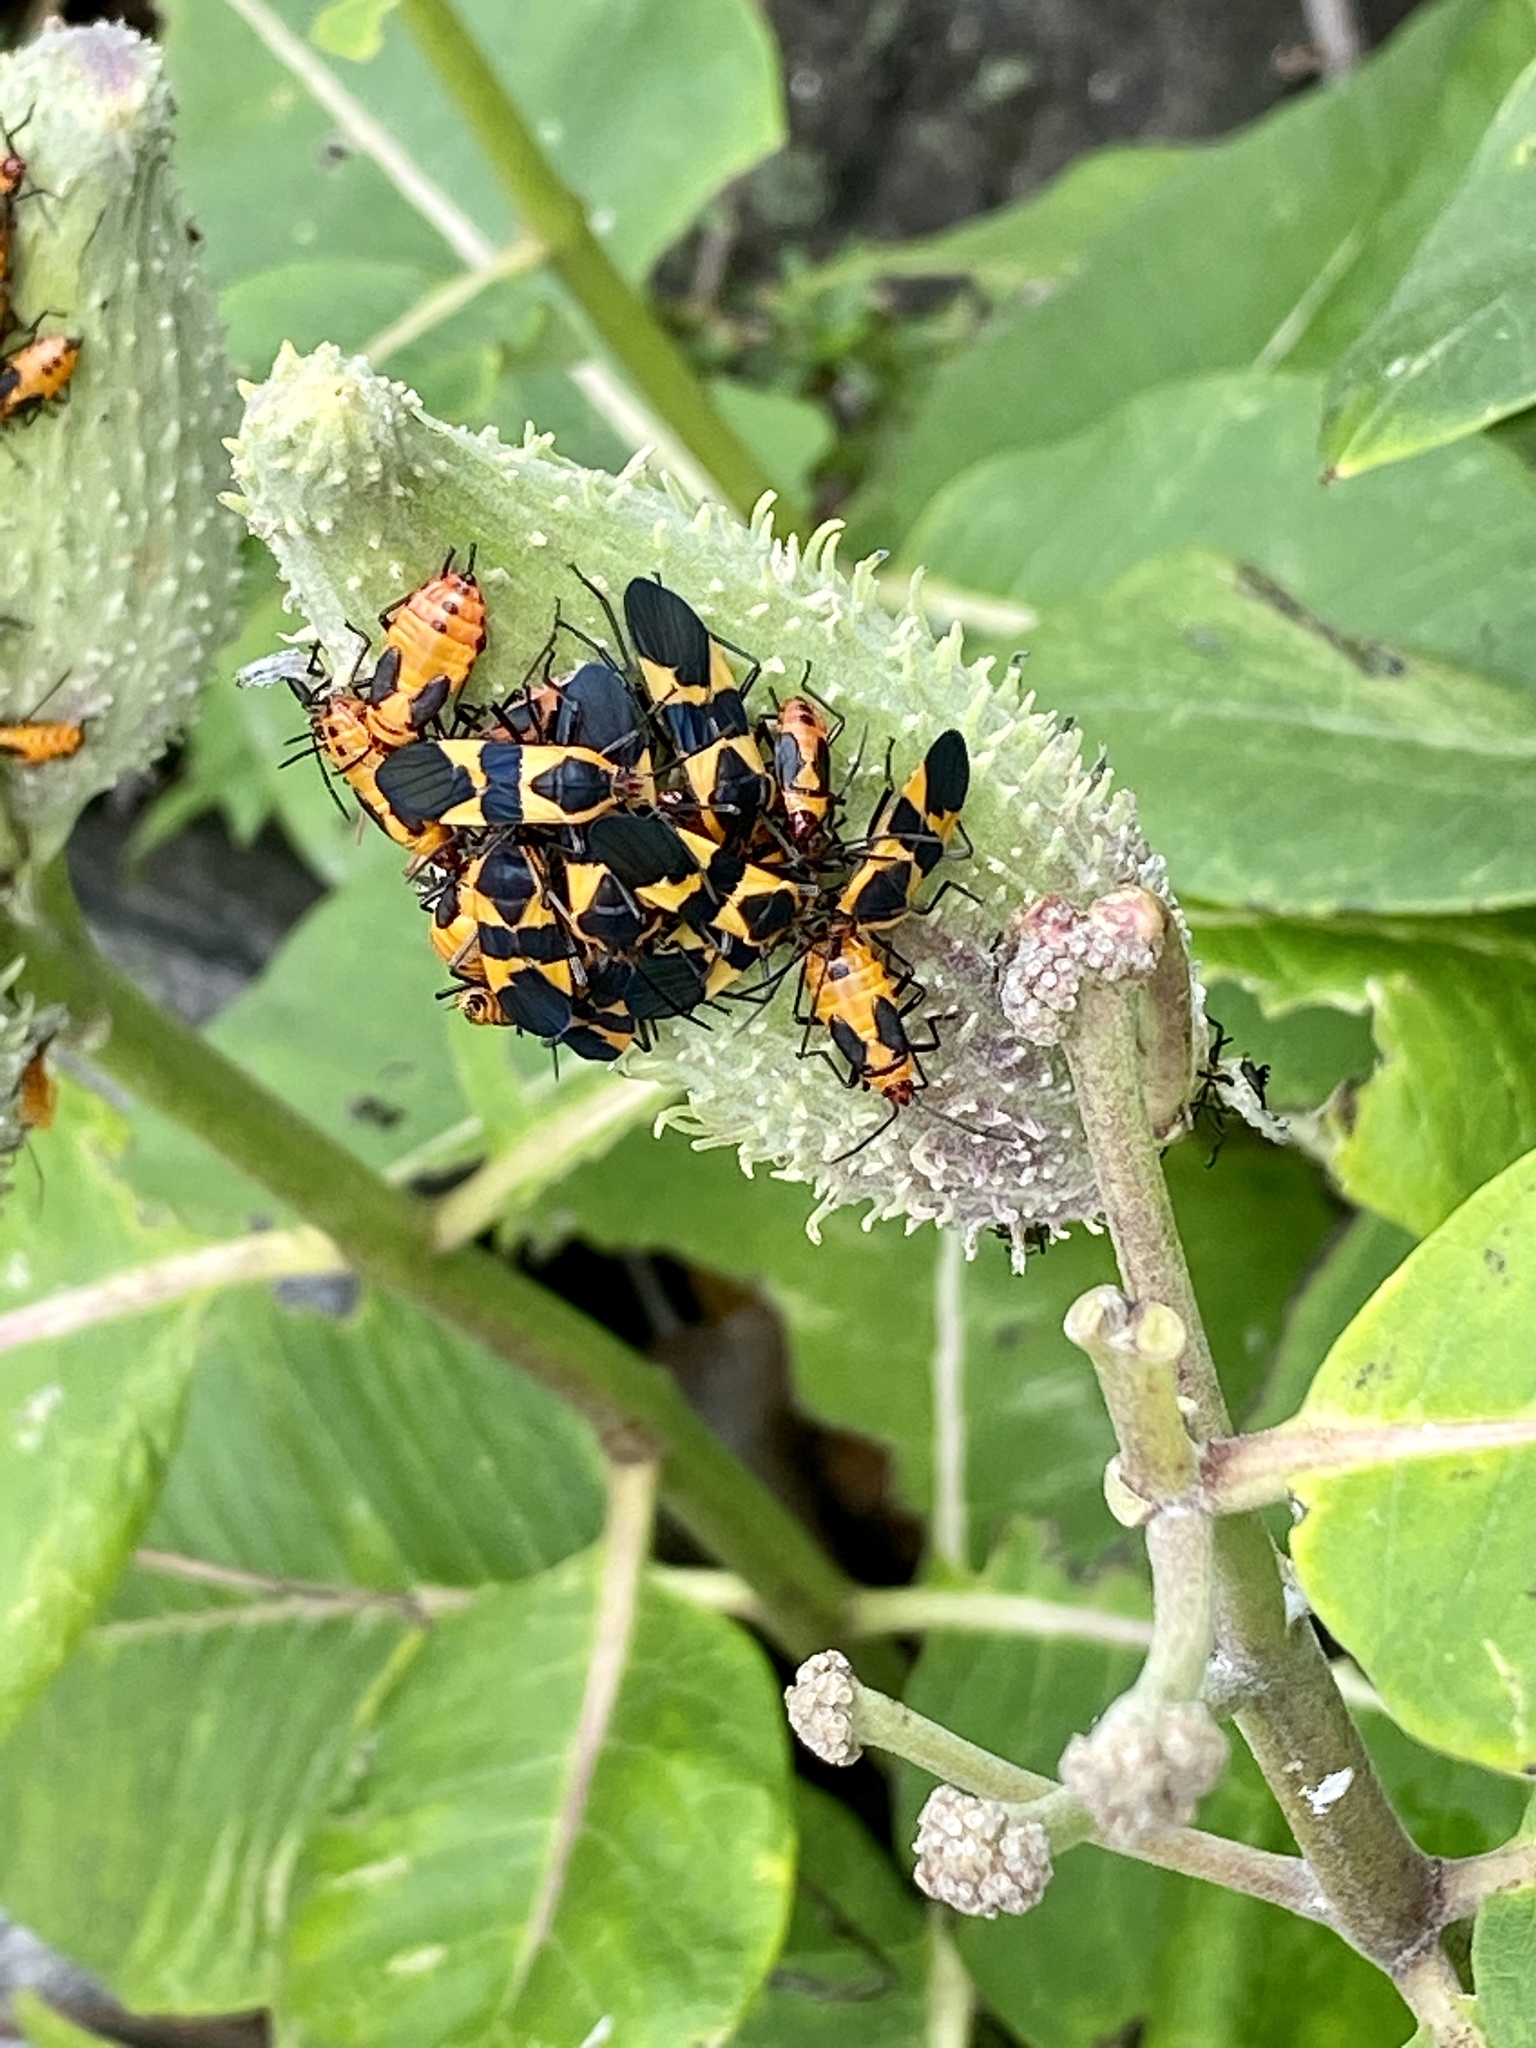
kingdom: Animalia
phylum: Arthropoda
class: Insecta
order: Hemiptera
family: Lygaeidae
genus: Oncopeltus
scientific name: Oncopeltus fasciatus
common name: Large milkweed bug
